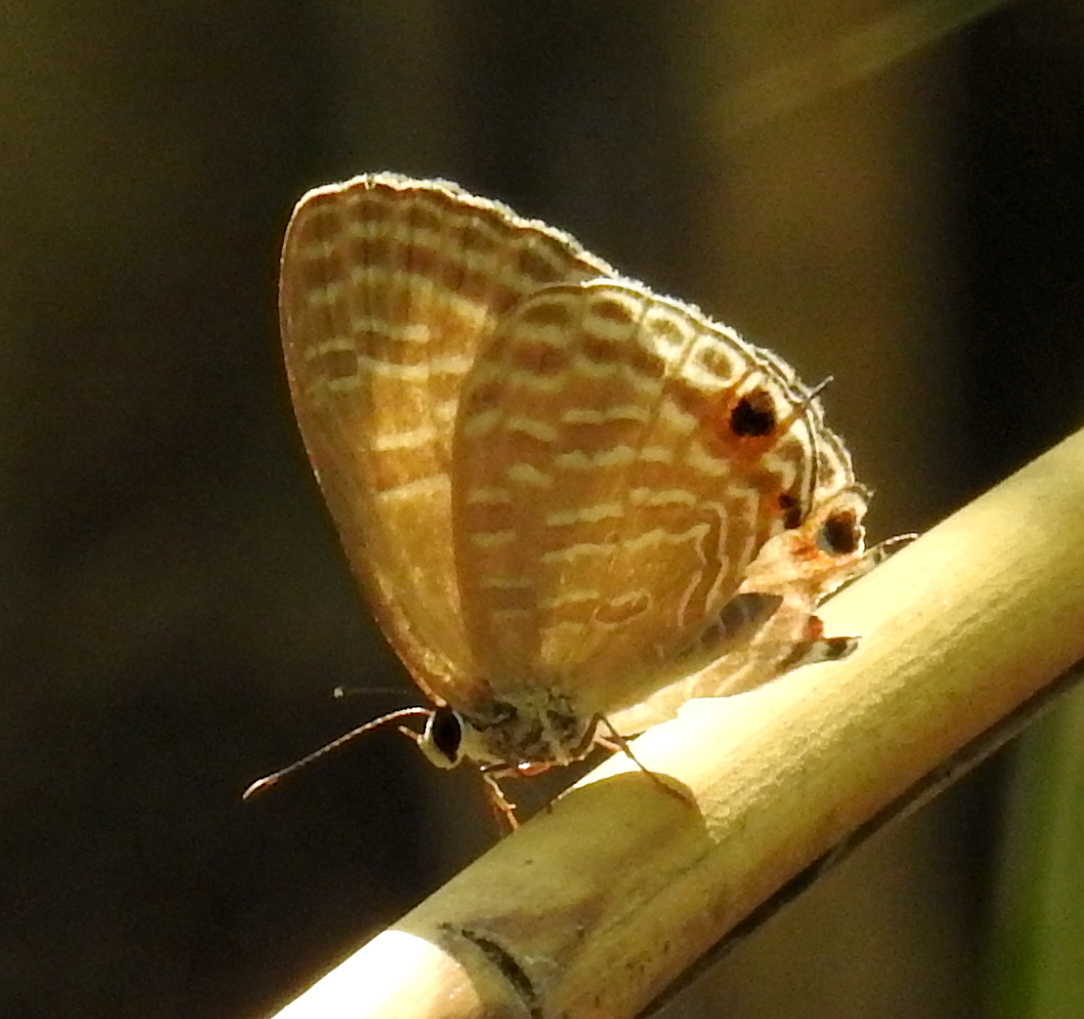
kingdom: Animalia
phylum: Arthropoda
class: Insecta
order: Lepidoptera
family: Lycaenidae
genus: Jamides
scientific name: Jamides alecto
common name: Metallic cerulean
